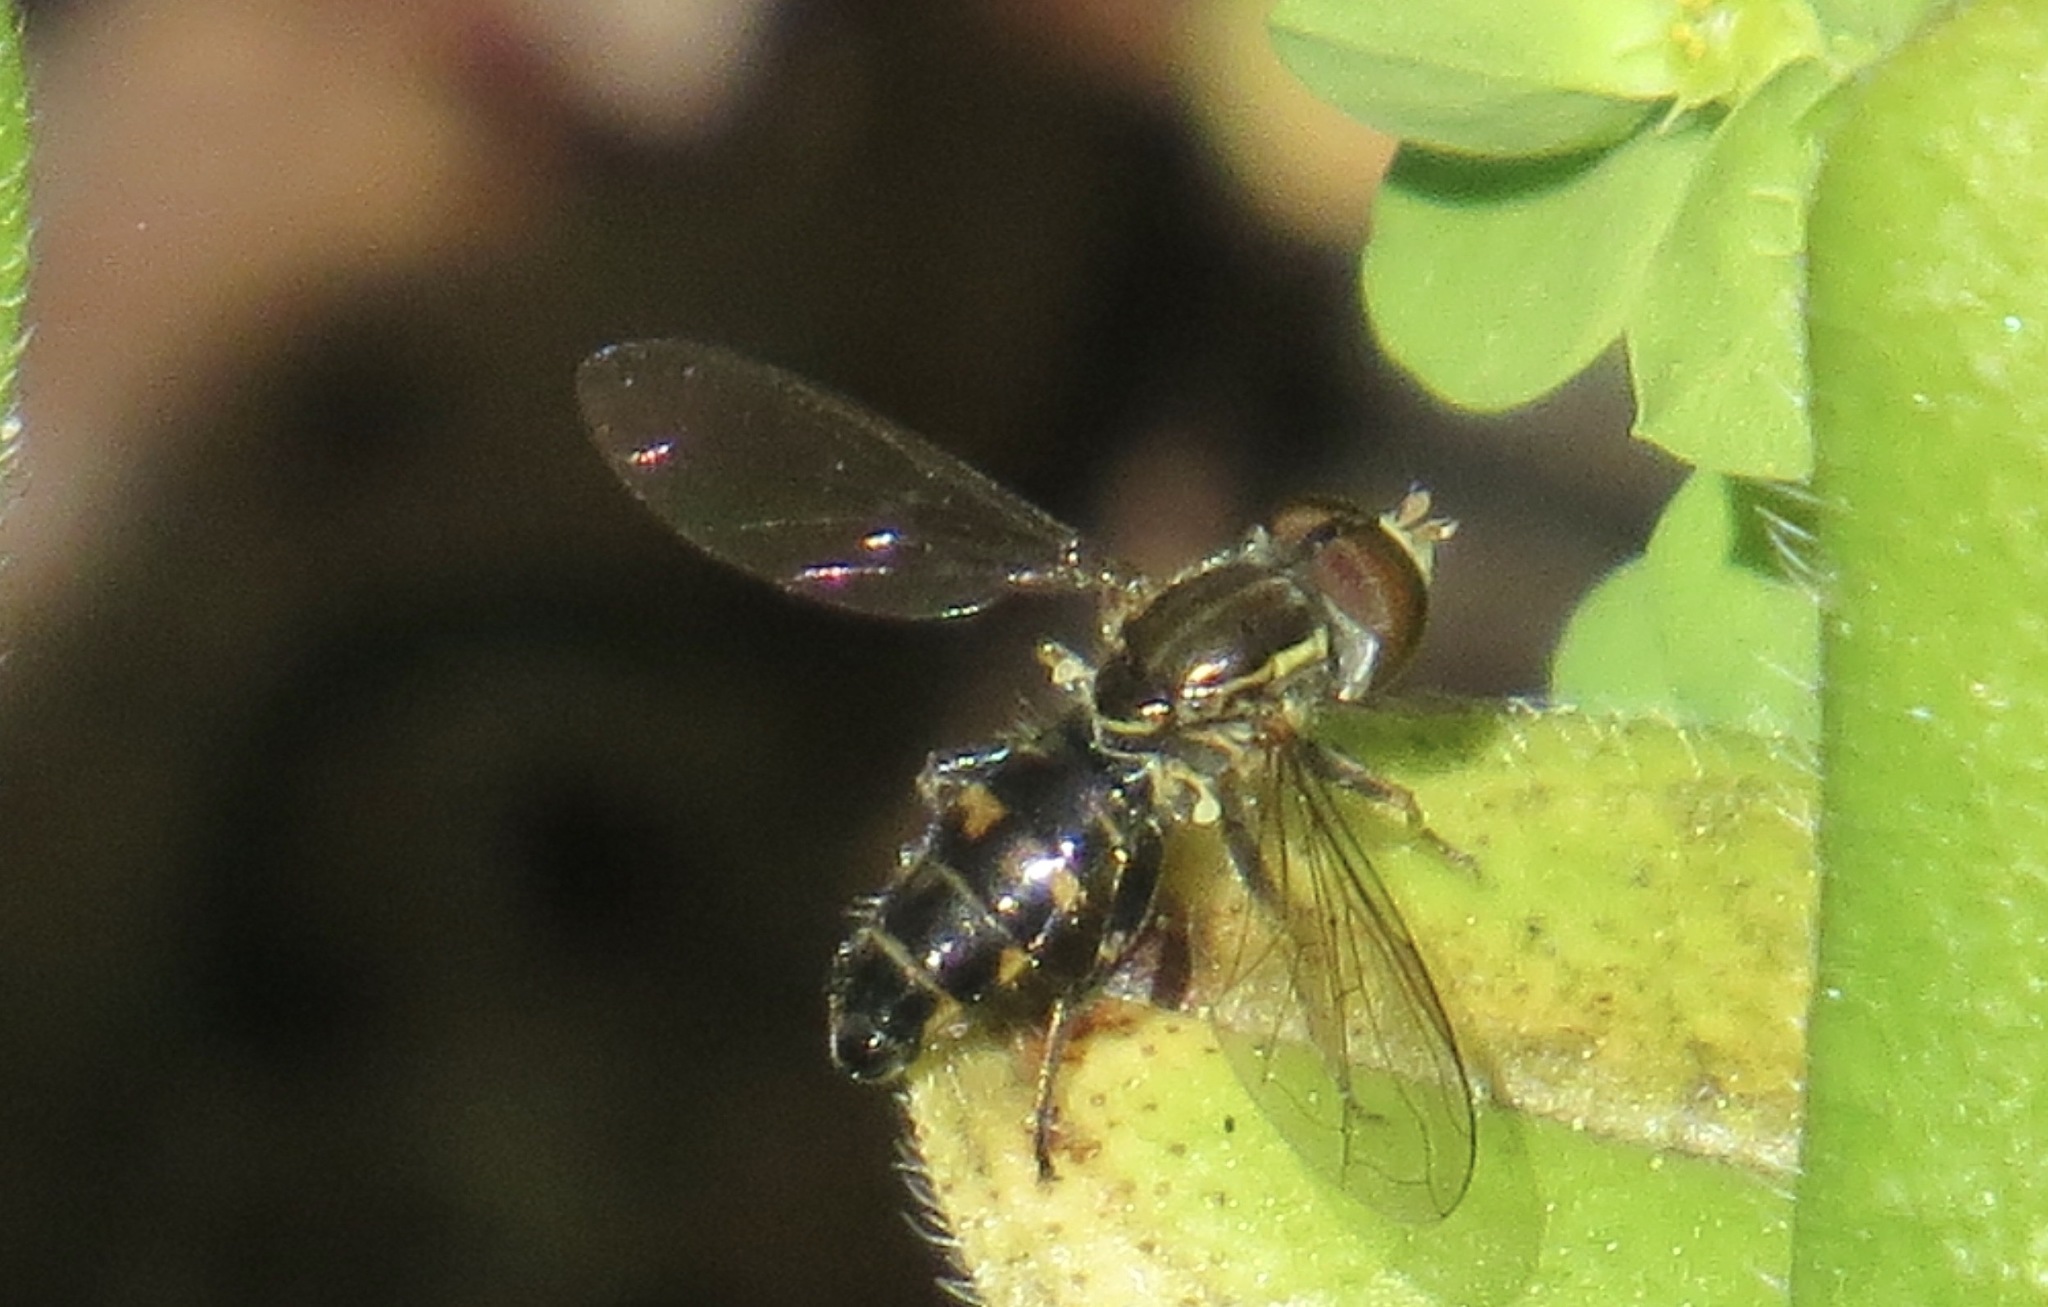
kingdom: Animalia
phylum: Arthropoda
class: Insecta
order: Diptera
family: Syrphidae
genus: Toxomerus
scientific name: Toxomerus occidentalis
